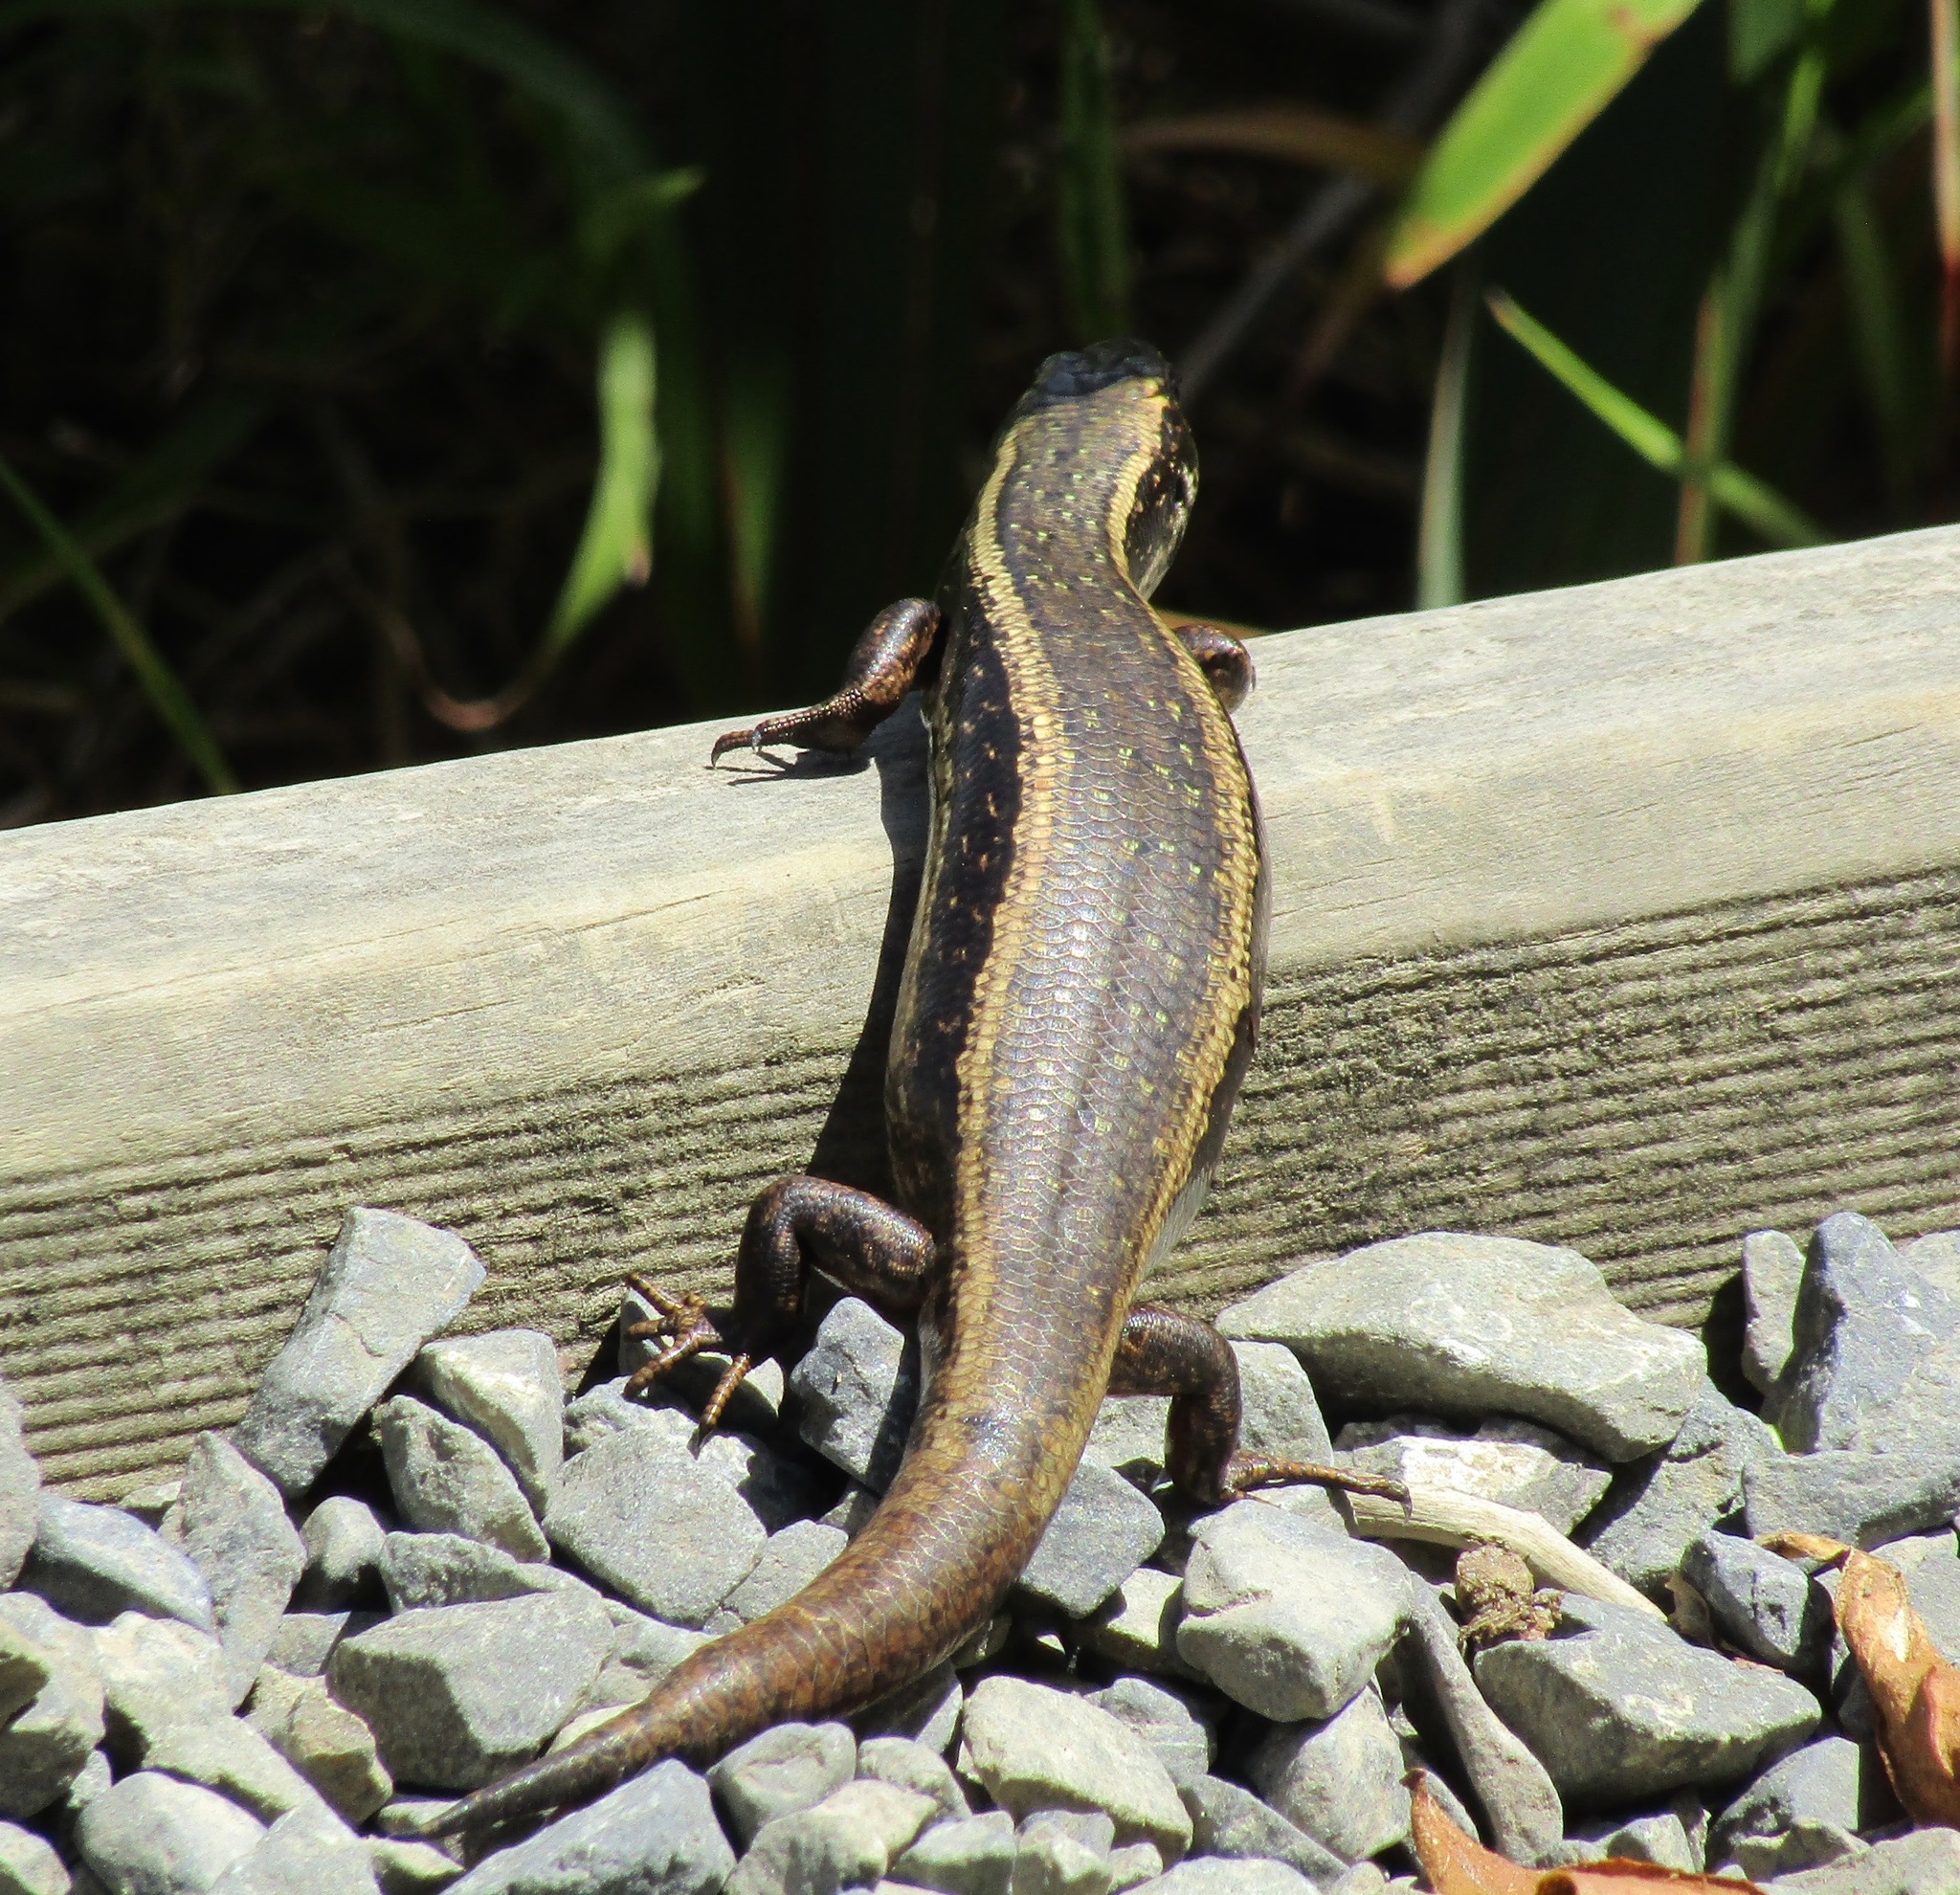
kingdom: Animalia
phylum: Chordata
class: Squamata
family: Scincidae
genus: Oligosoma
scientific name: Oligosoma kokowai
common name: Northern spotted skink
